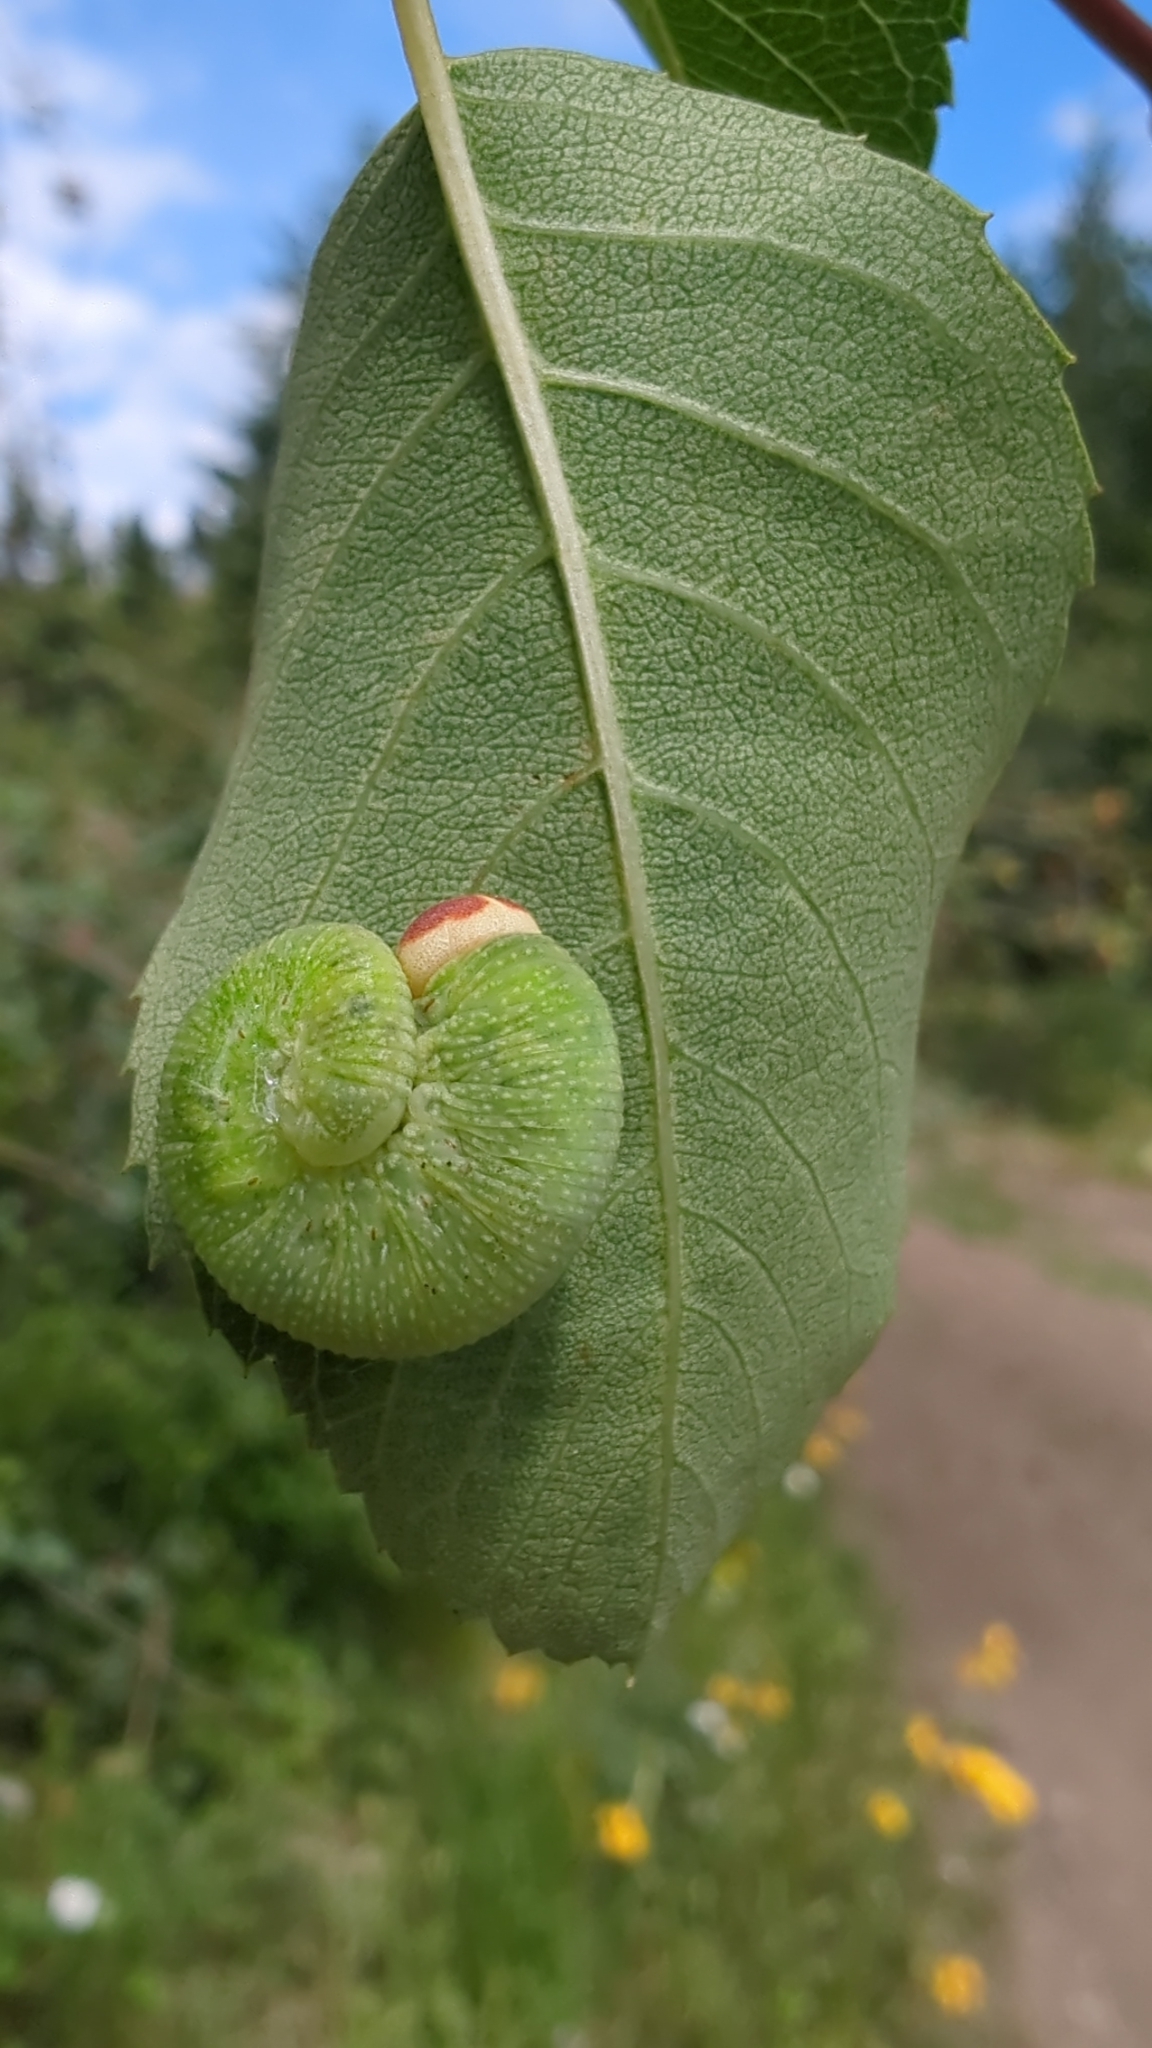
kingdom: Animalia
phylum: Arthropoda
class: Insecta
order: Hymenoptera
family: Cimbicidae
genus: Trichiosoma
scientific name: Trichiosoma triangulum
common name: Giant birch sawfly
